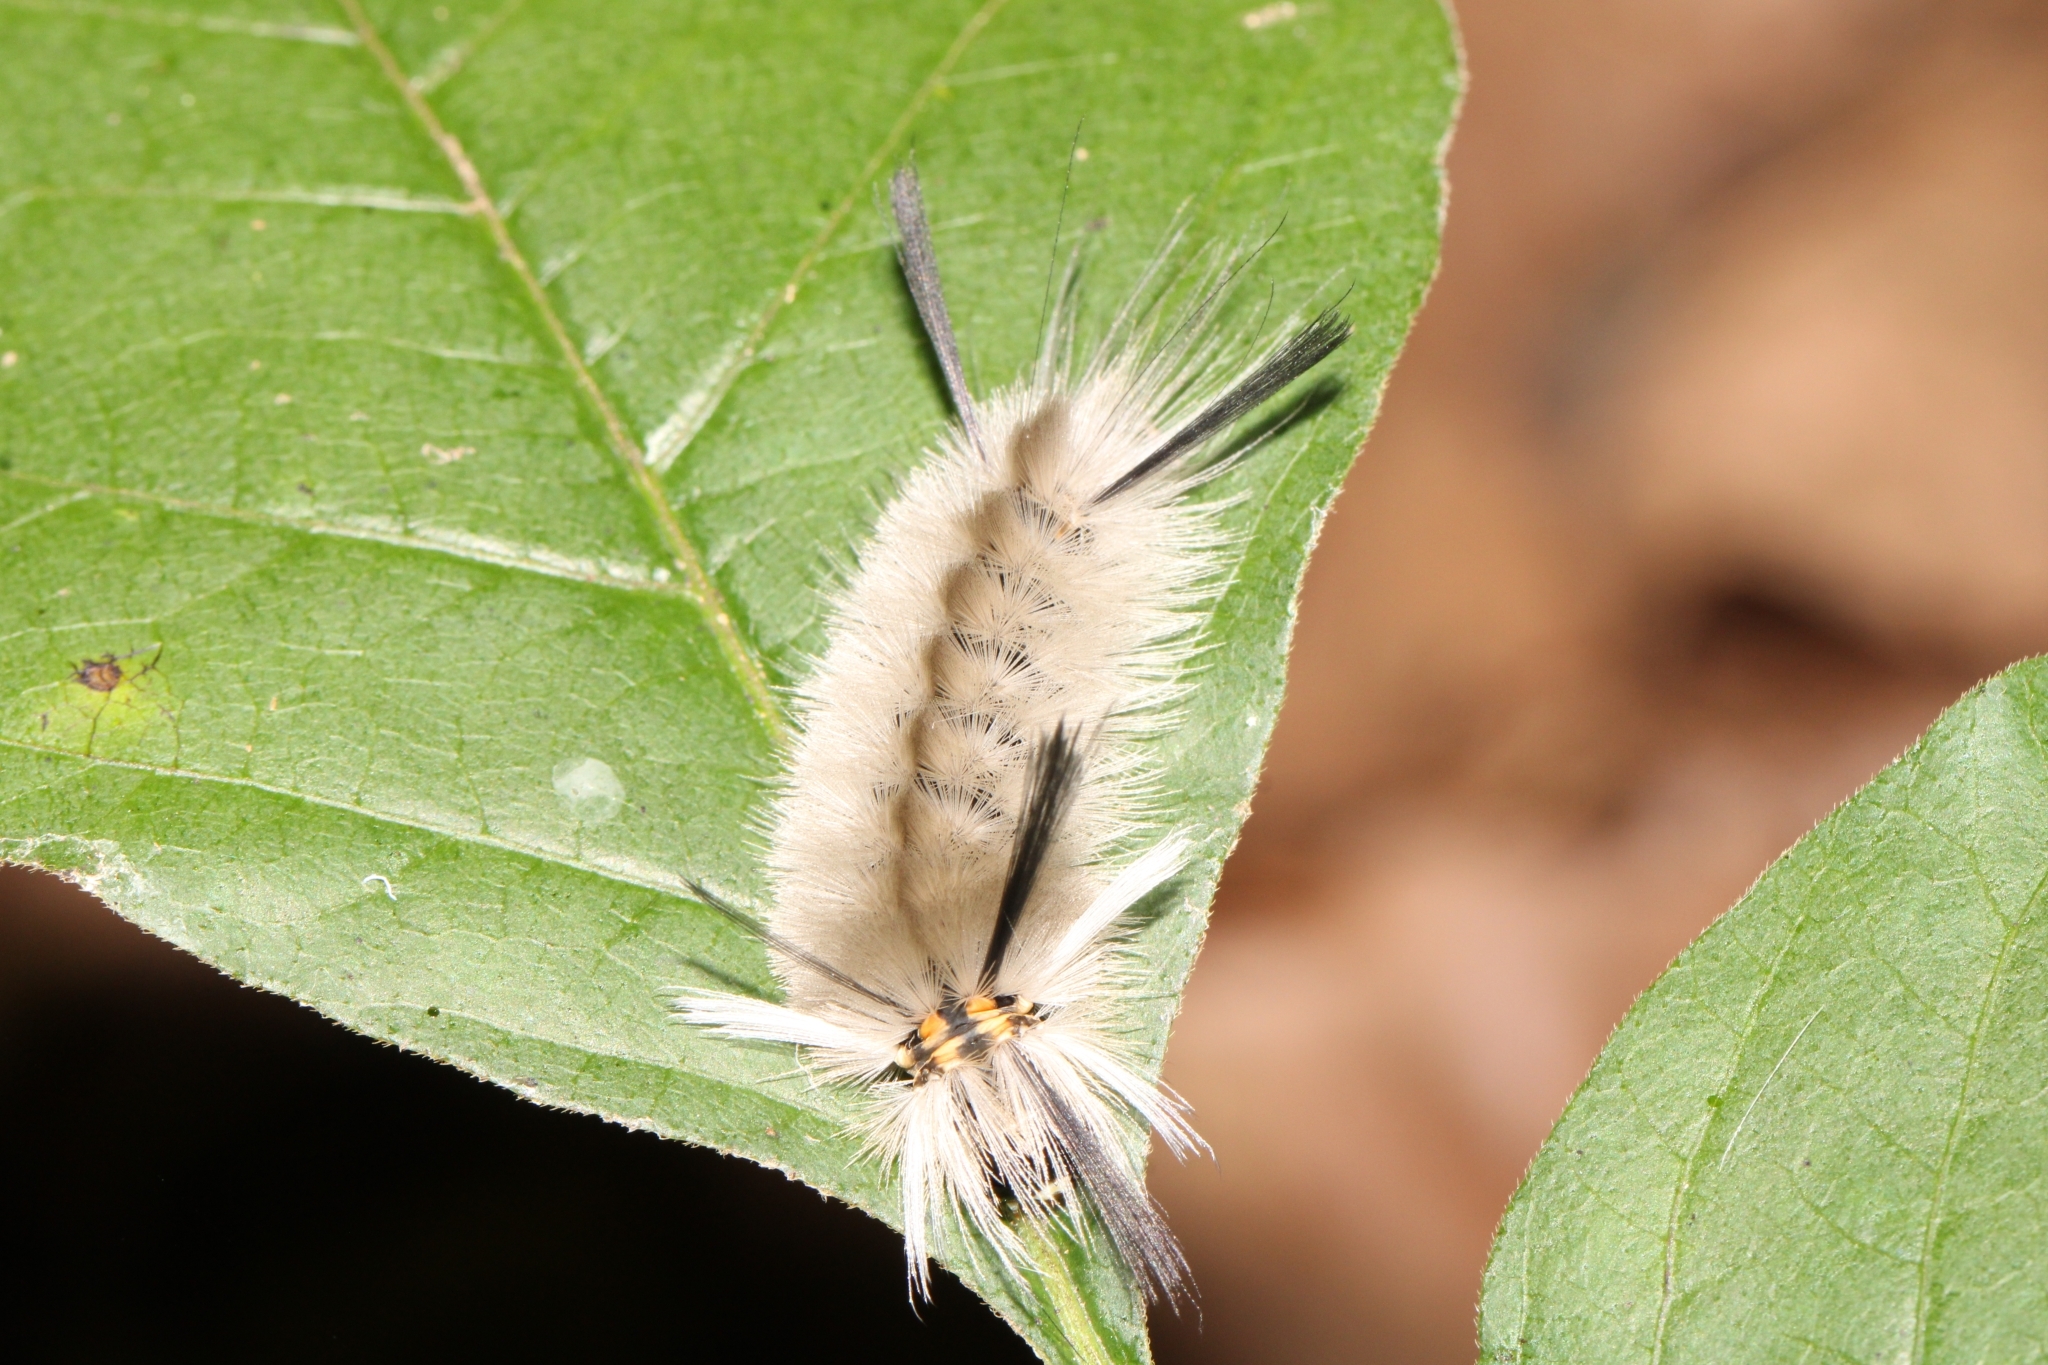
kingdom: Animalia
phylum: Arthropoda
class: Insecta
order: Lepidoptera
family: Erebidae
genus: Halysidota
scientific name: Halysidota tessellaris
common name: Banded tussock moth
